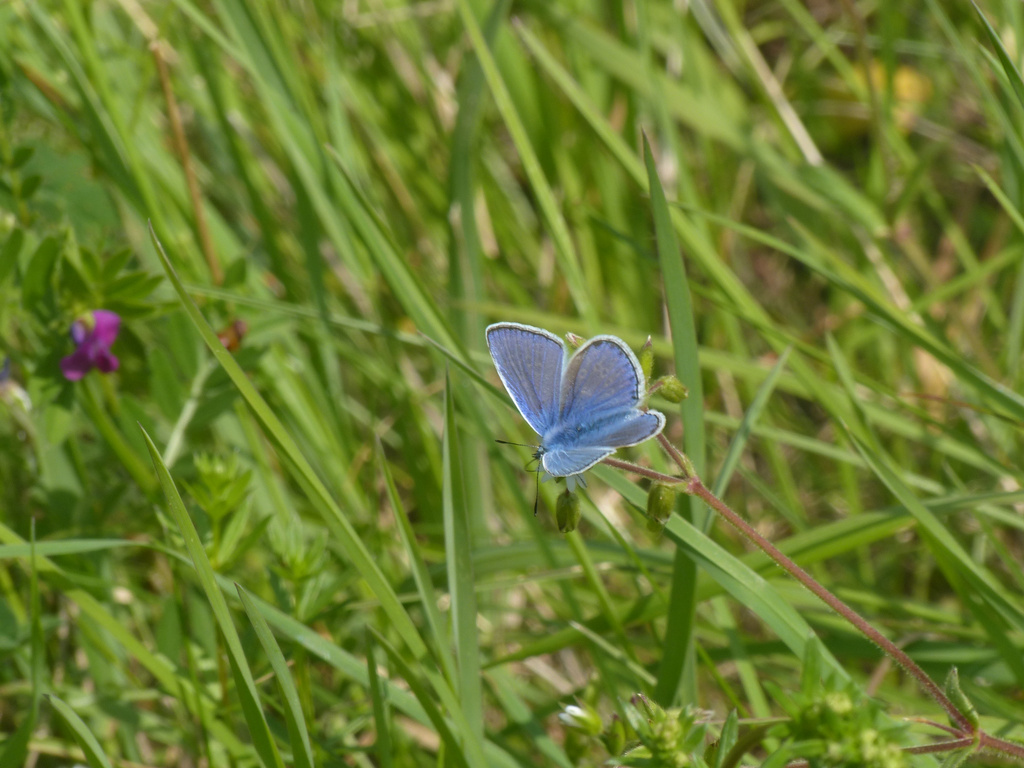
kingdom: Animalia
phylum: Arthropoda
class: Insecta
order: Lepidoptera
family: Lycaenidae
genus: Polyommatus
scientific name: Polyommatus icarus
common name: Common blue
